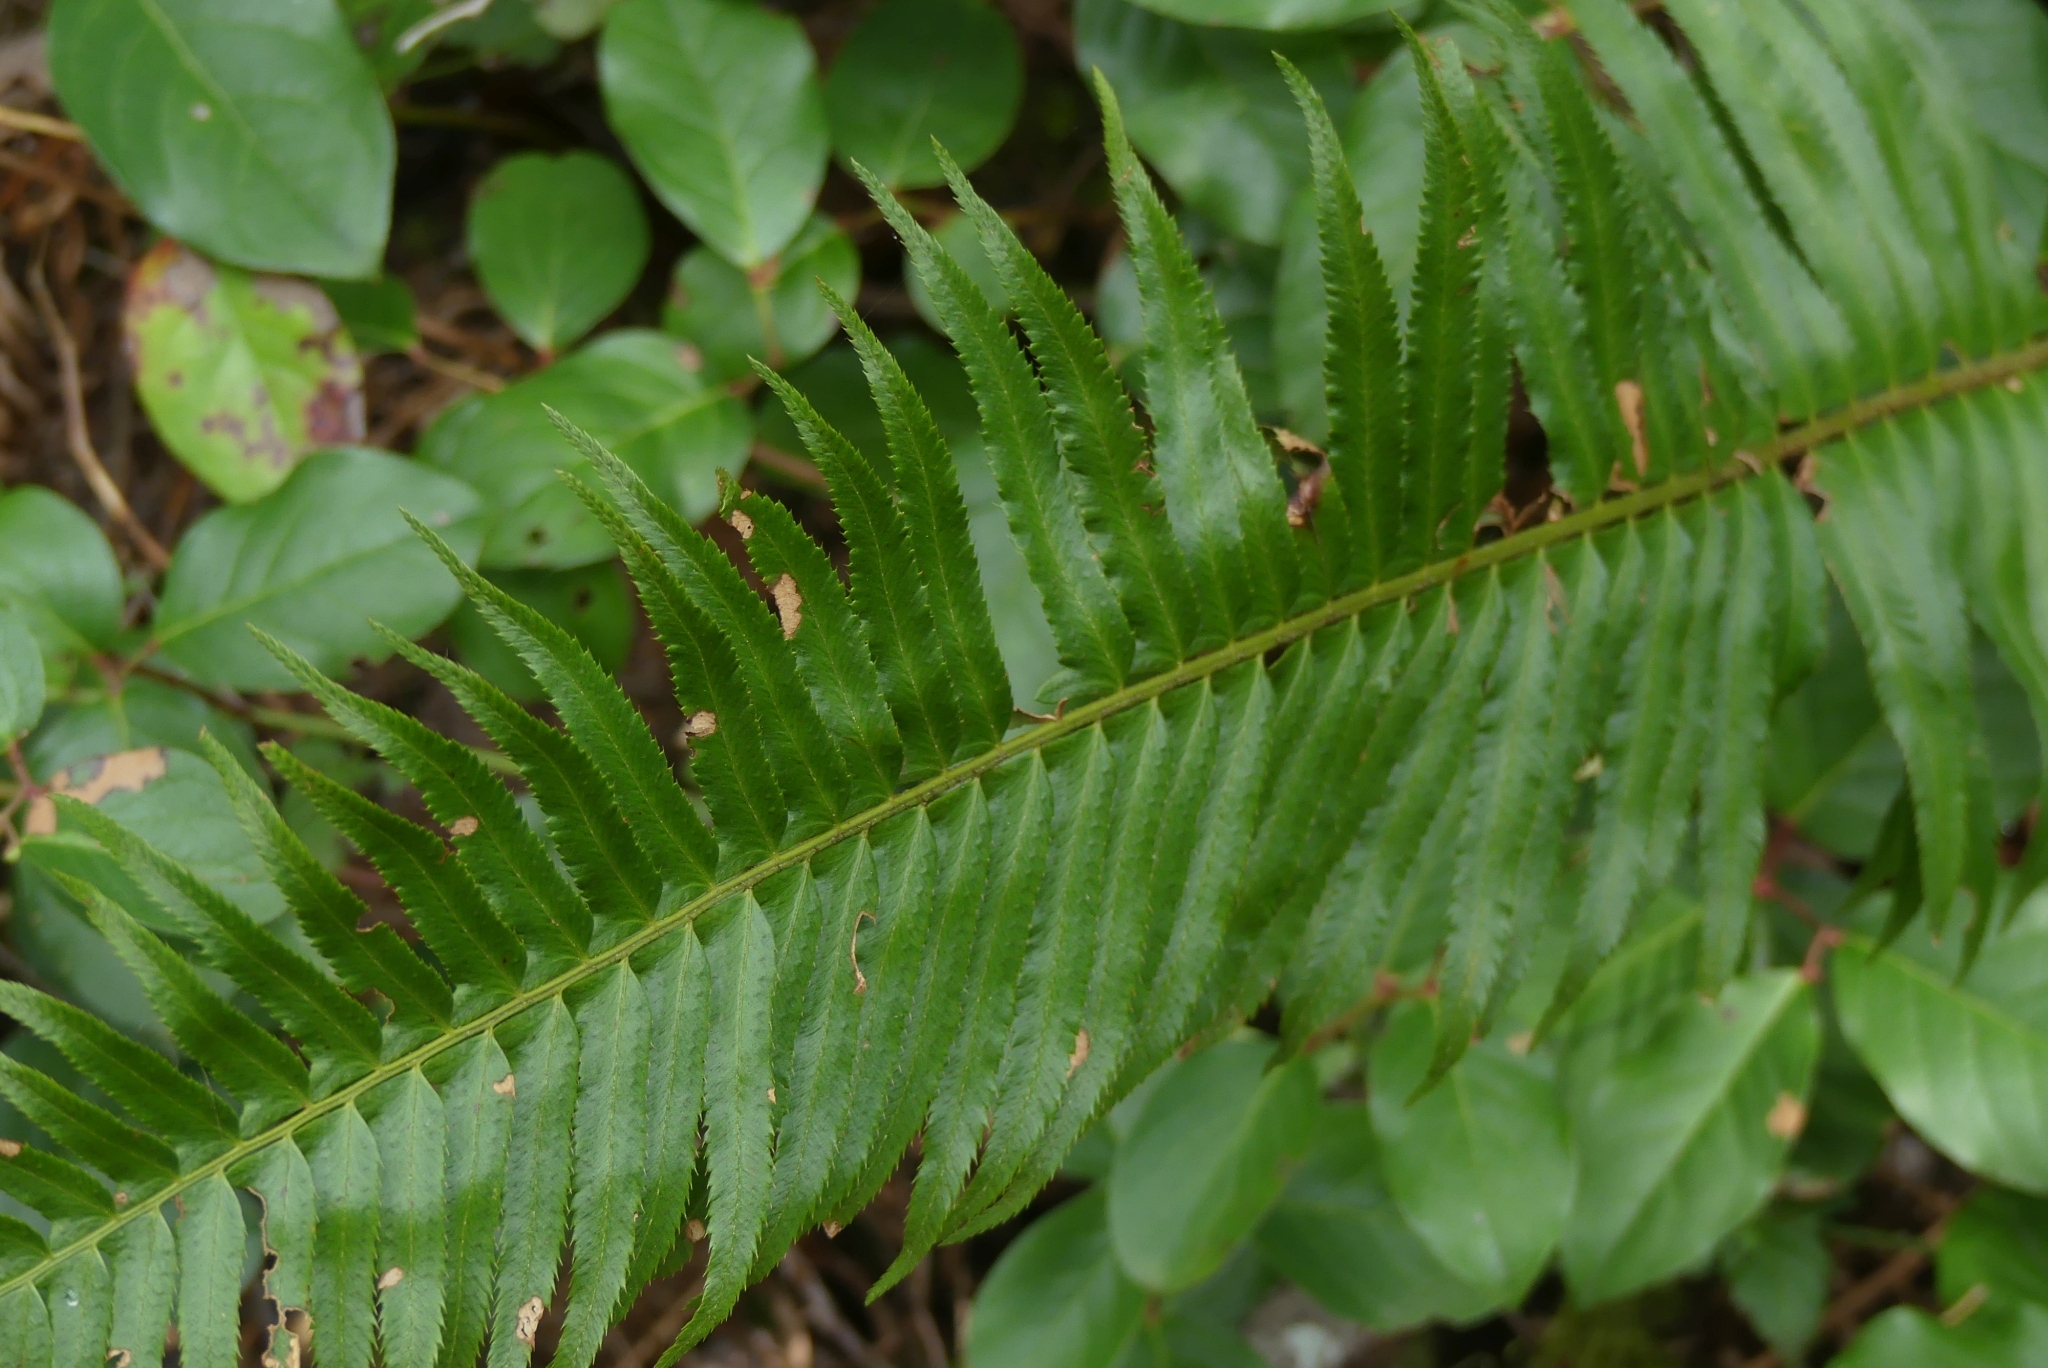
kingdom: Plantae
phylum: Tracheophyta
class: Polypodiopsida
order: Polypodiales
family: Dryopteridaceae
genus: Polystichum
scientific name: Polystichum munitum
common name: Western sword-fern
